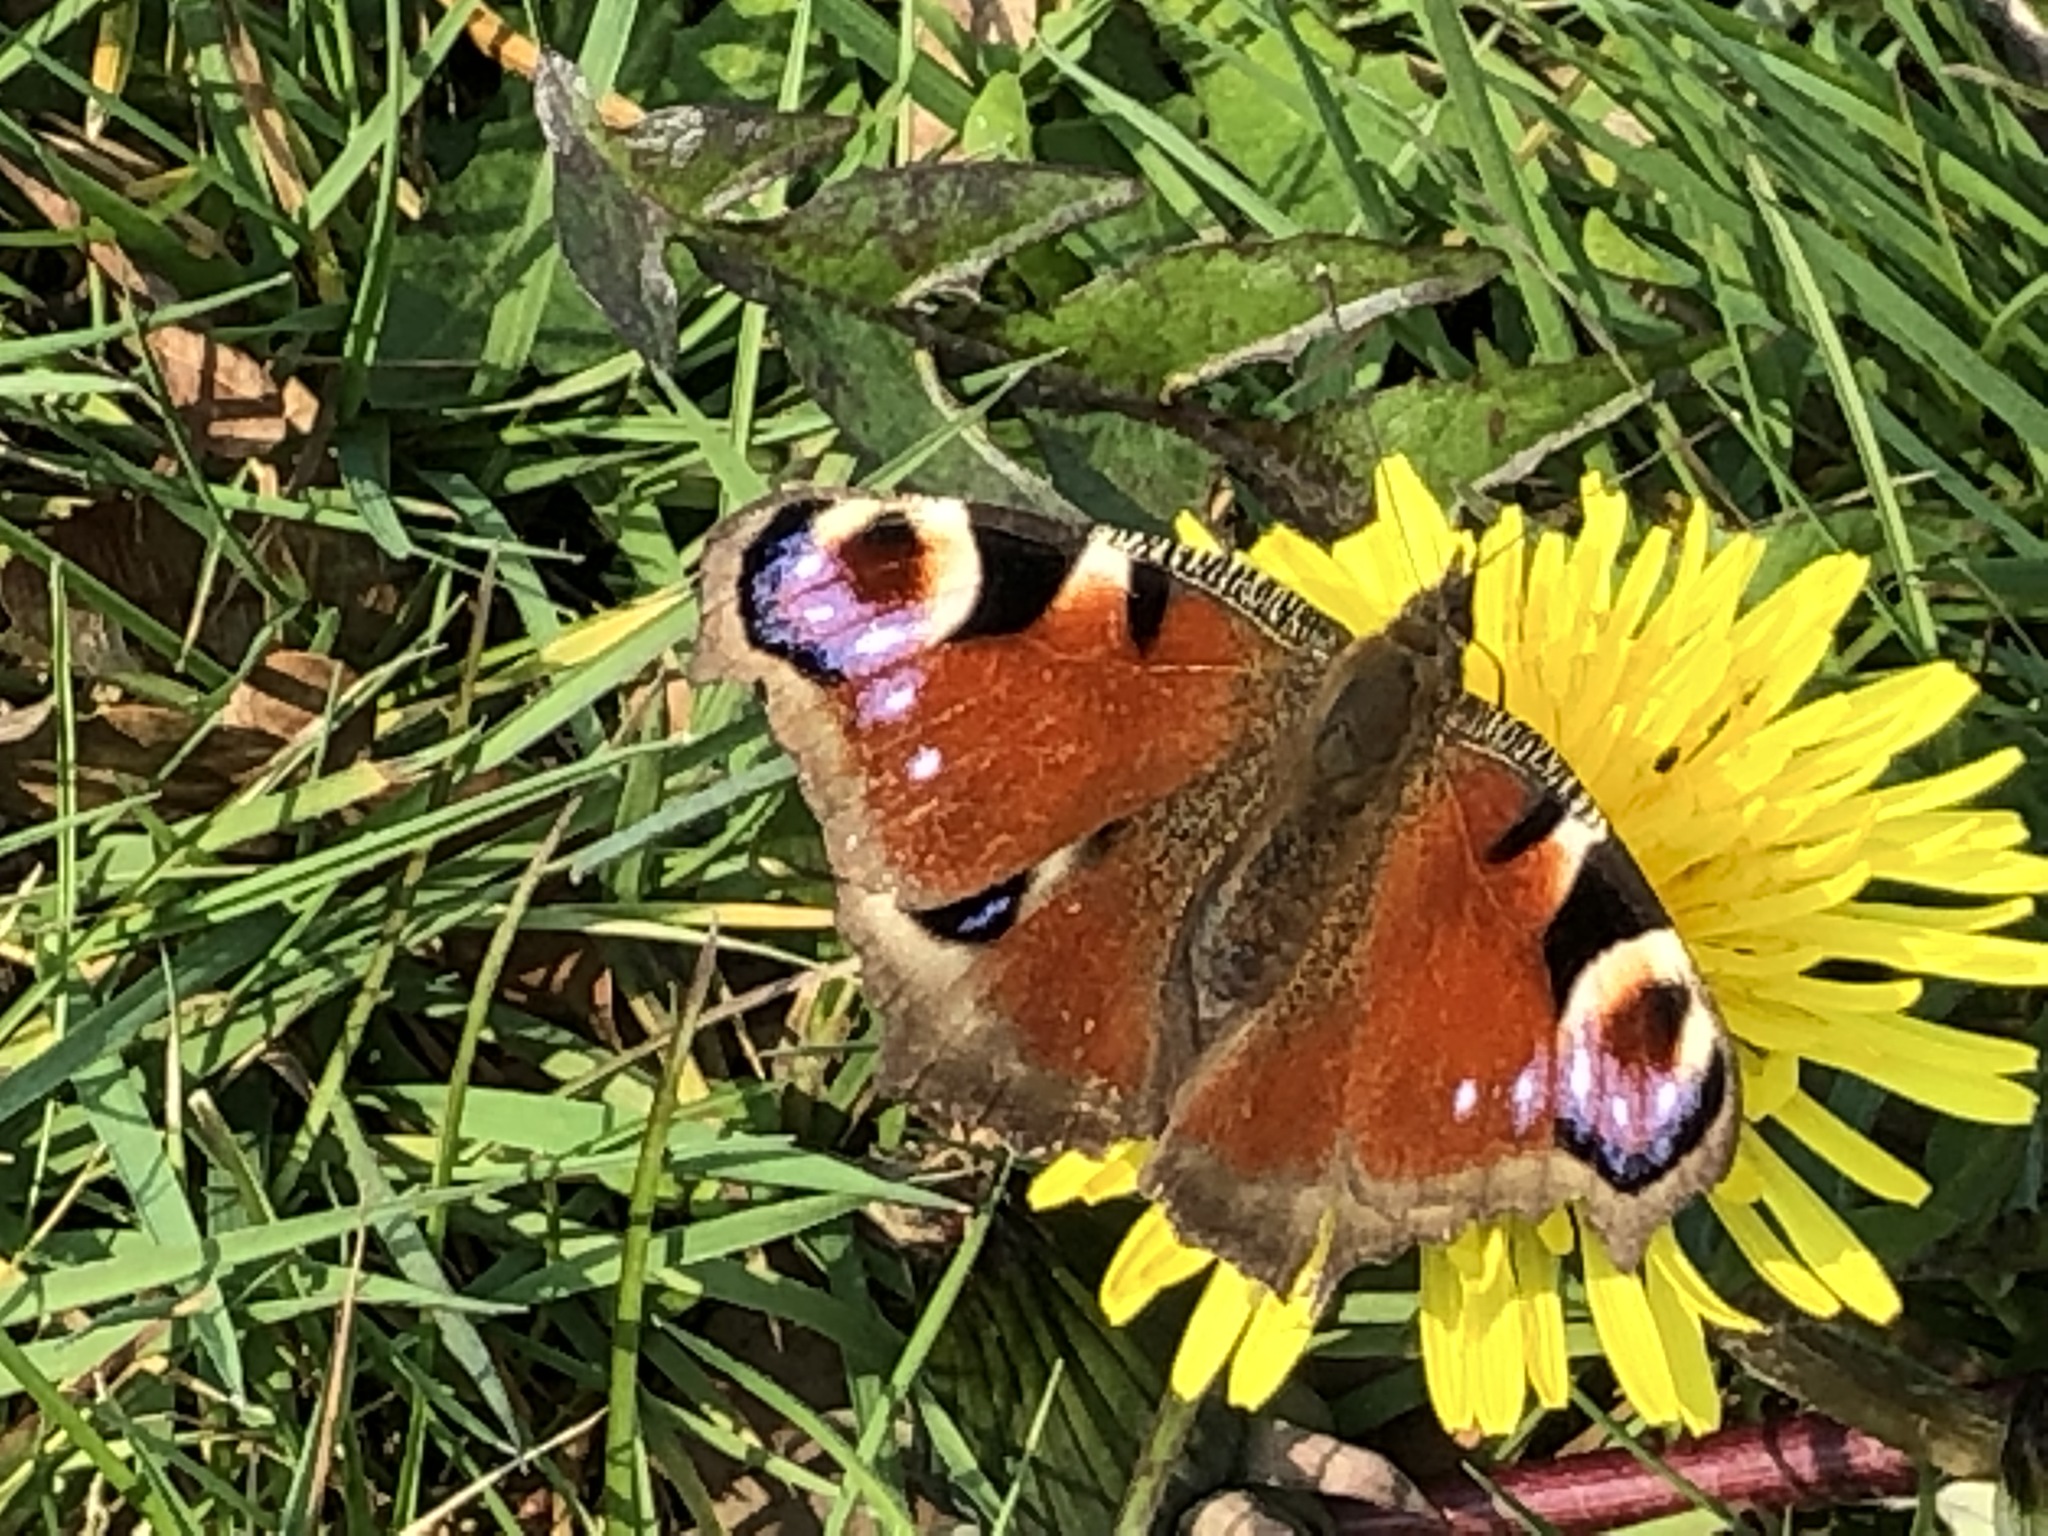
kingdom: Animalia
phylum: Arthropoda
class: Insecta
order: Lepidoptera
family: Nymphalidae
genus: Aglais
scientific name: Aglais io
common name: Peacock
